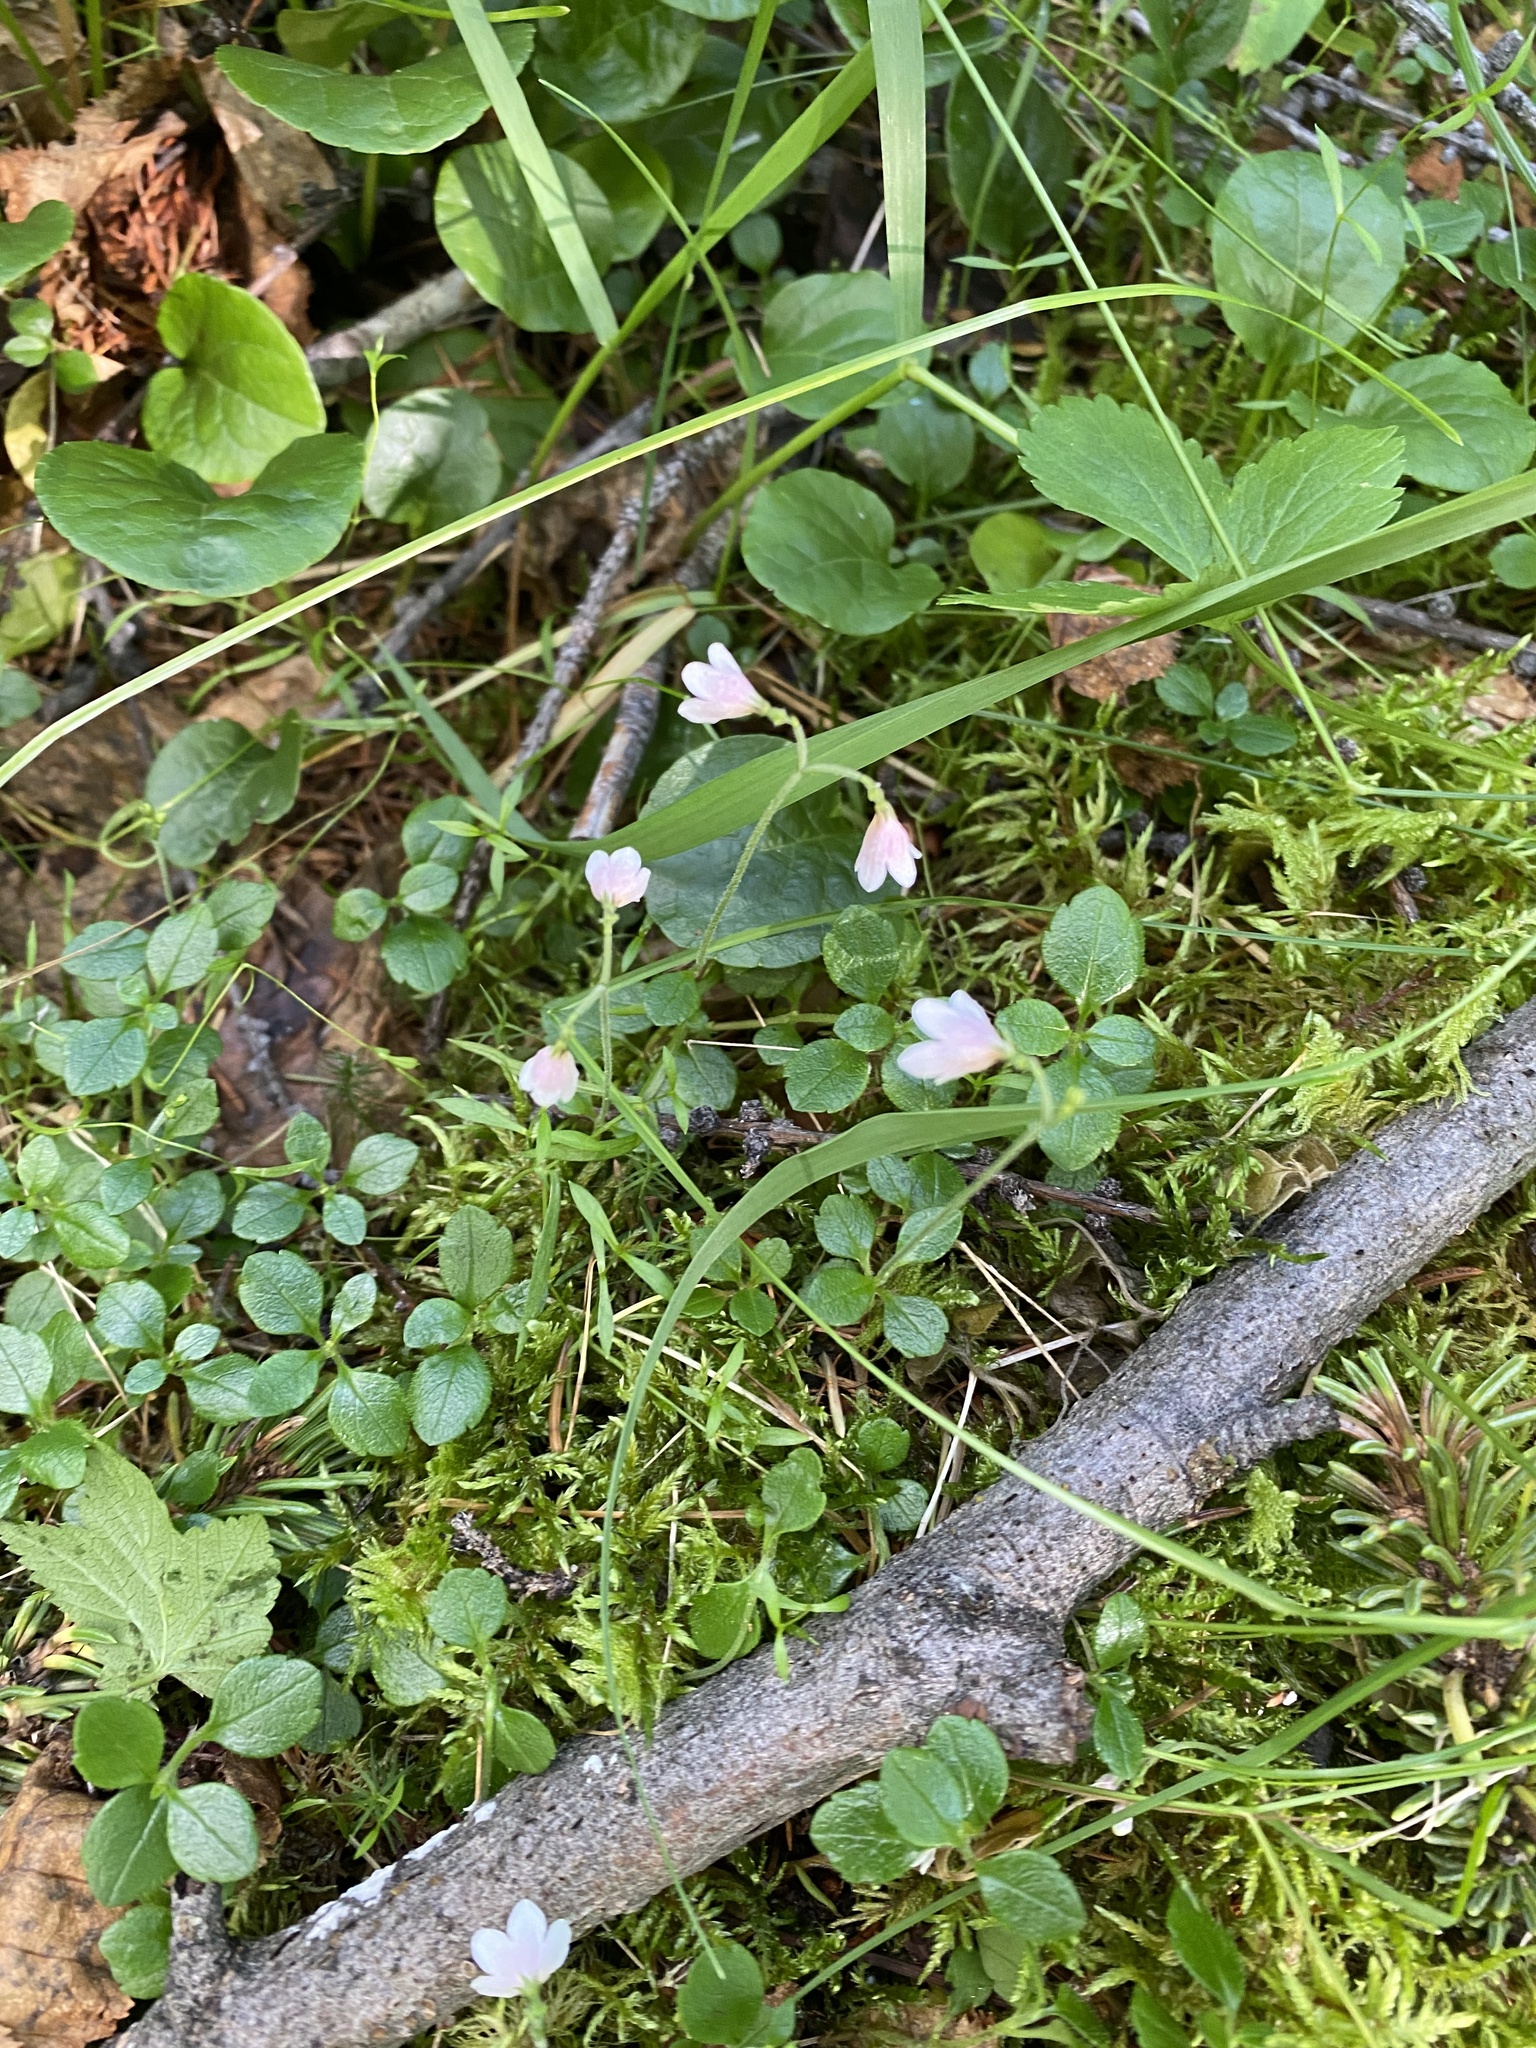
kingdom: Plantae
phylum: Tracheophyta
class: Magnoliopsida
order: Dipsacales
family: Caprifoliaceae
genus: Linnaea
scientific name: Linnaea borealis
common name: Twinflower
